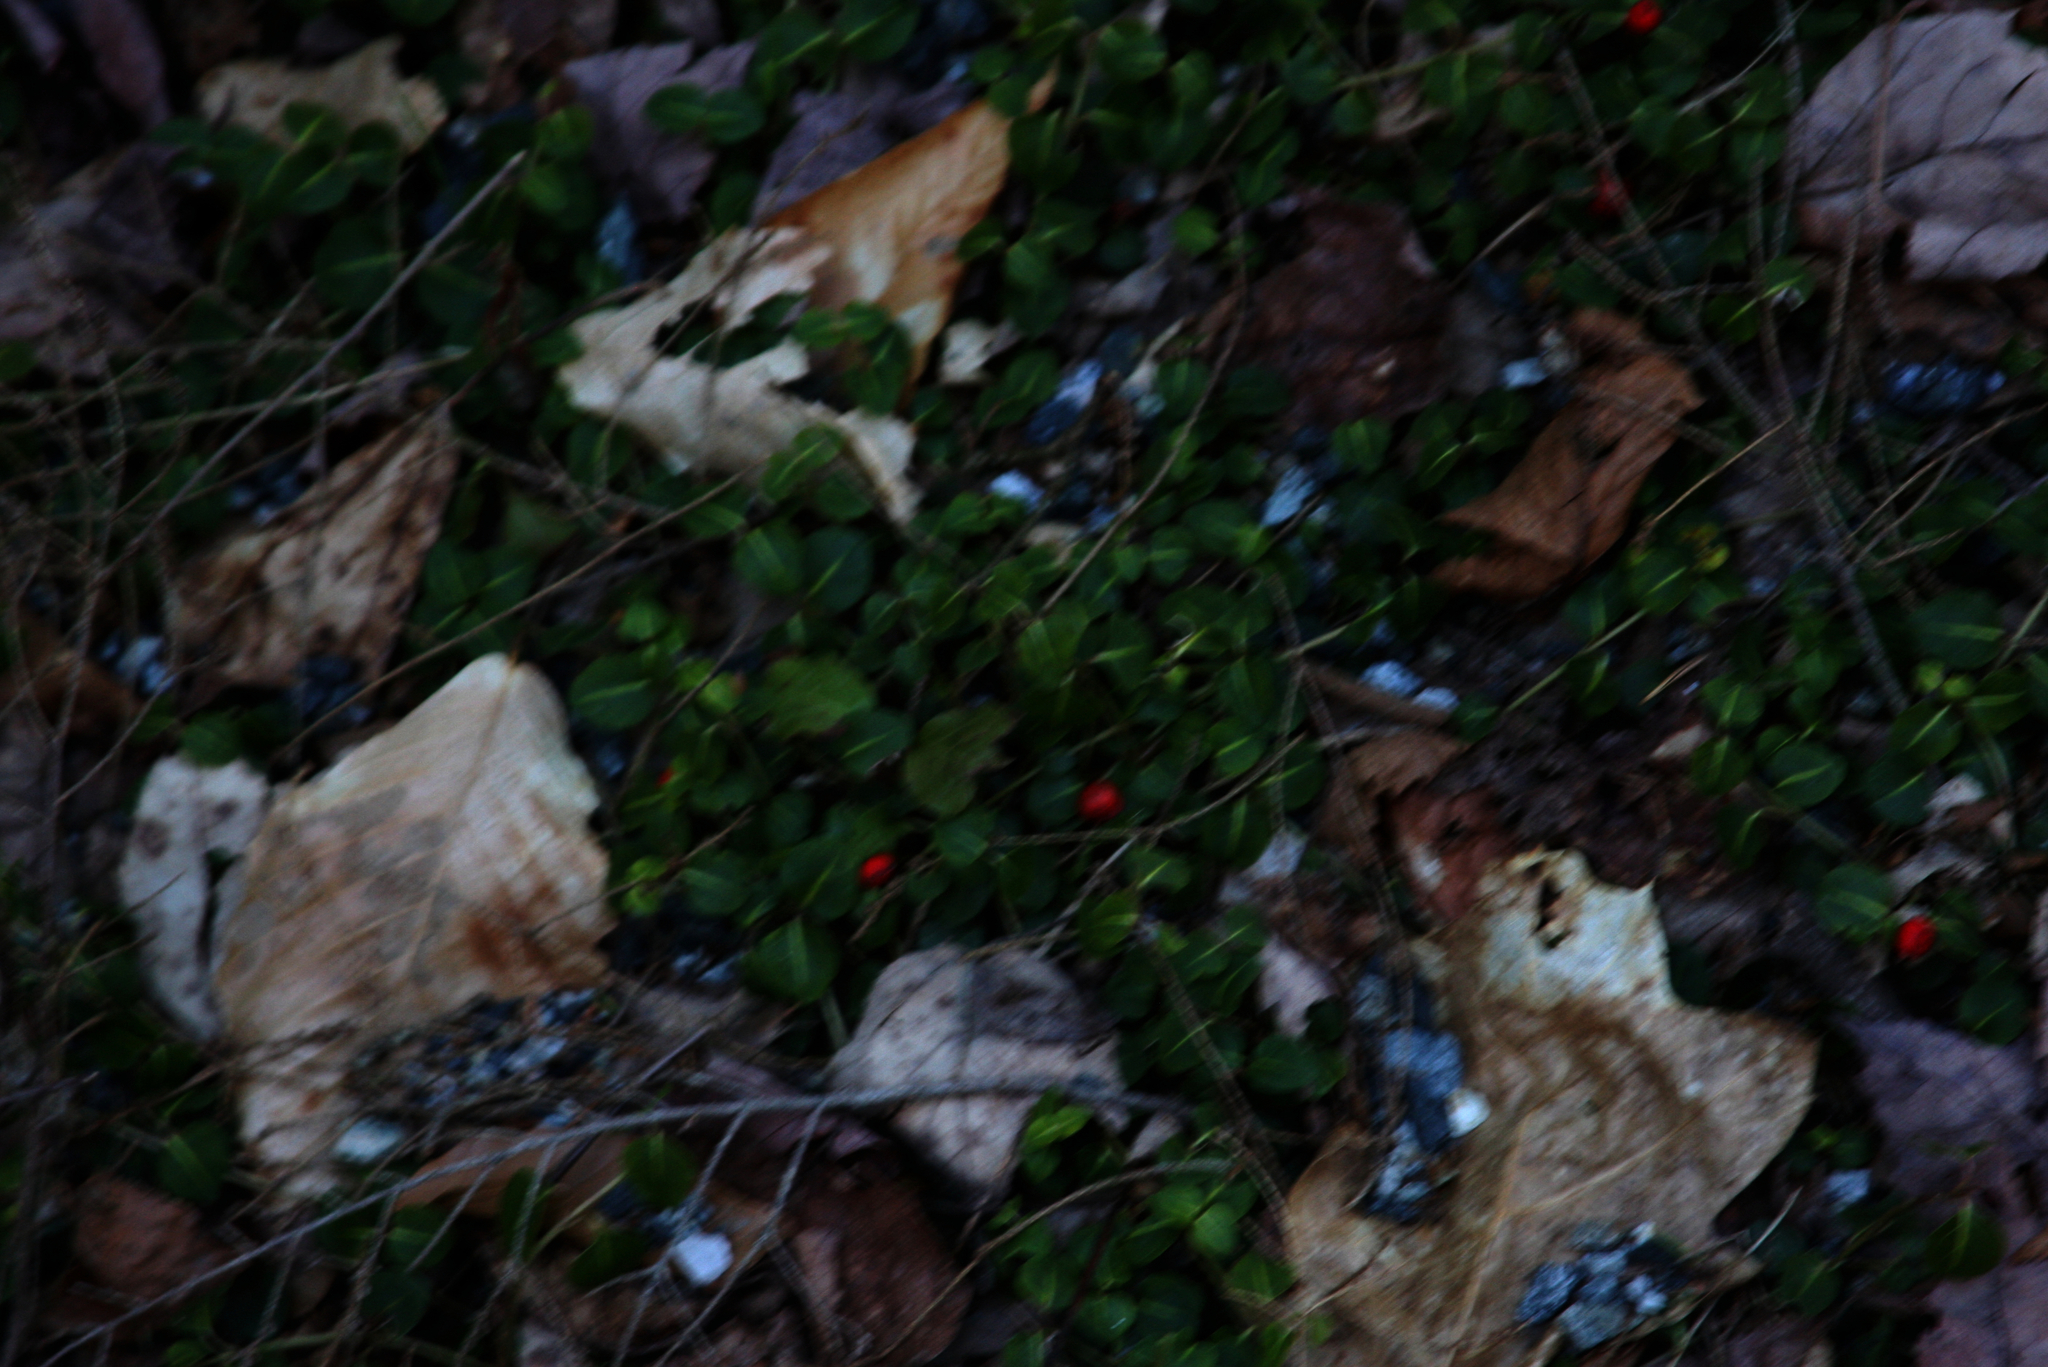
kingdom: Plantae
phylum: Tracheophyta
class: Magnoliopsida
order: Gentianales
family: Rubiaceae
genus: Mitchella
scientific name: Mitchella repens
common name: Partridge-berry
